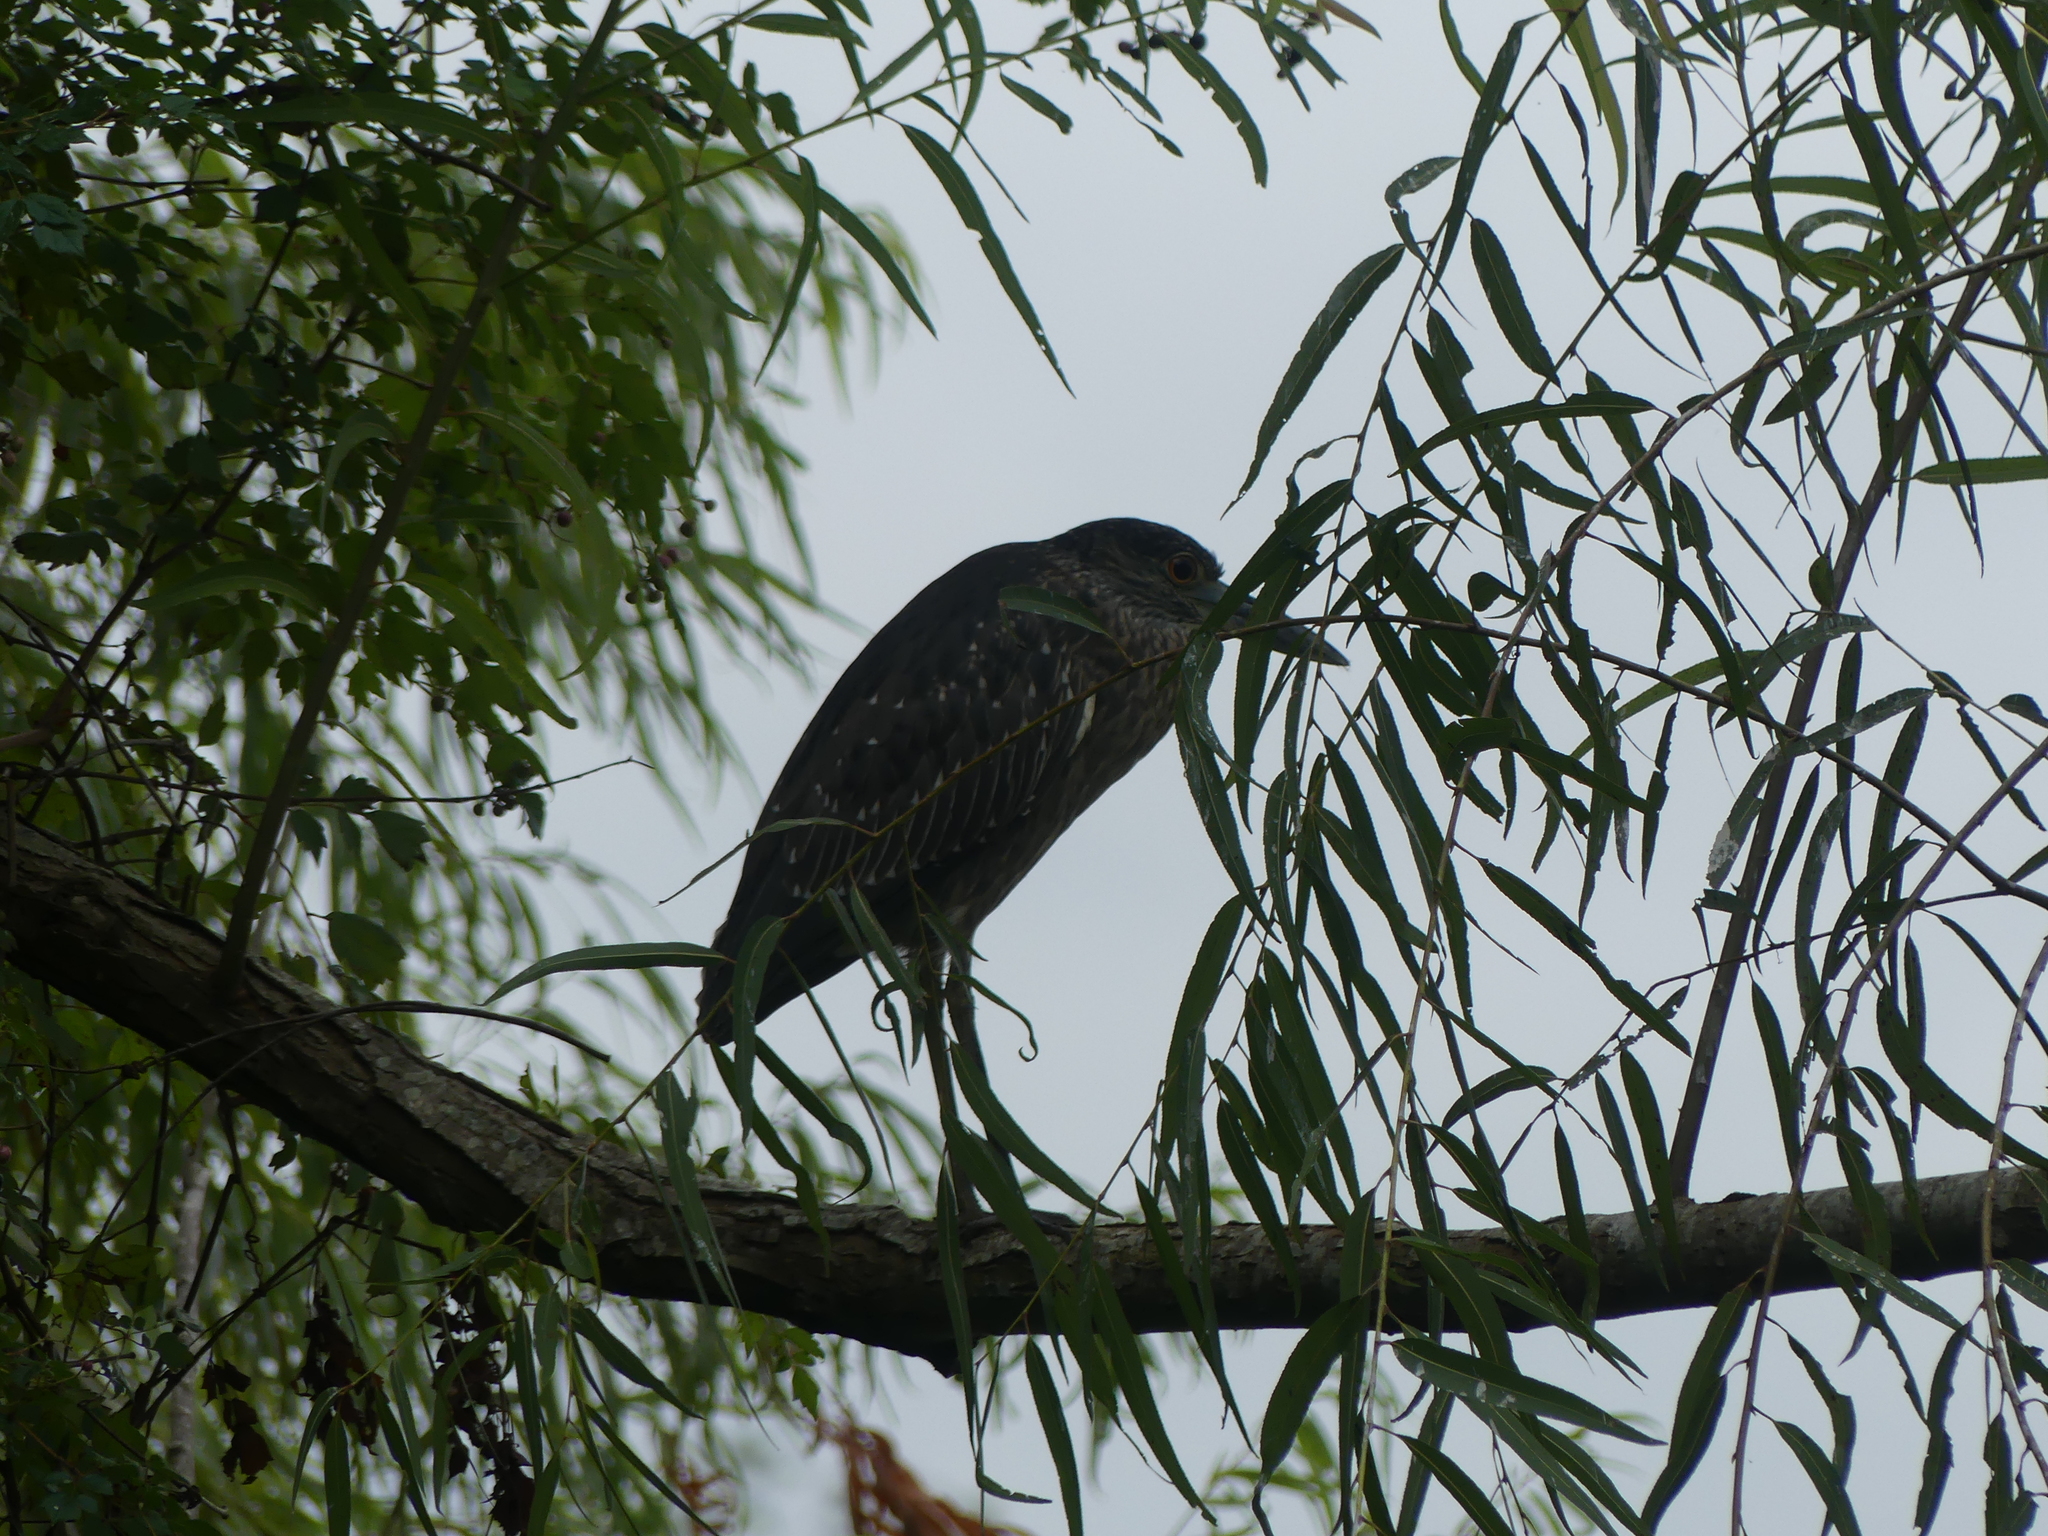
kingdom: Animalia
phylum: Chordata
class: Aves
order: Pelecaniformes
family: Ardeidae
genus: Nyctanassa
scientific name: Nyctanassa violacea
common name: Yellow-crowned night heron
